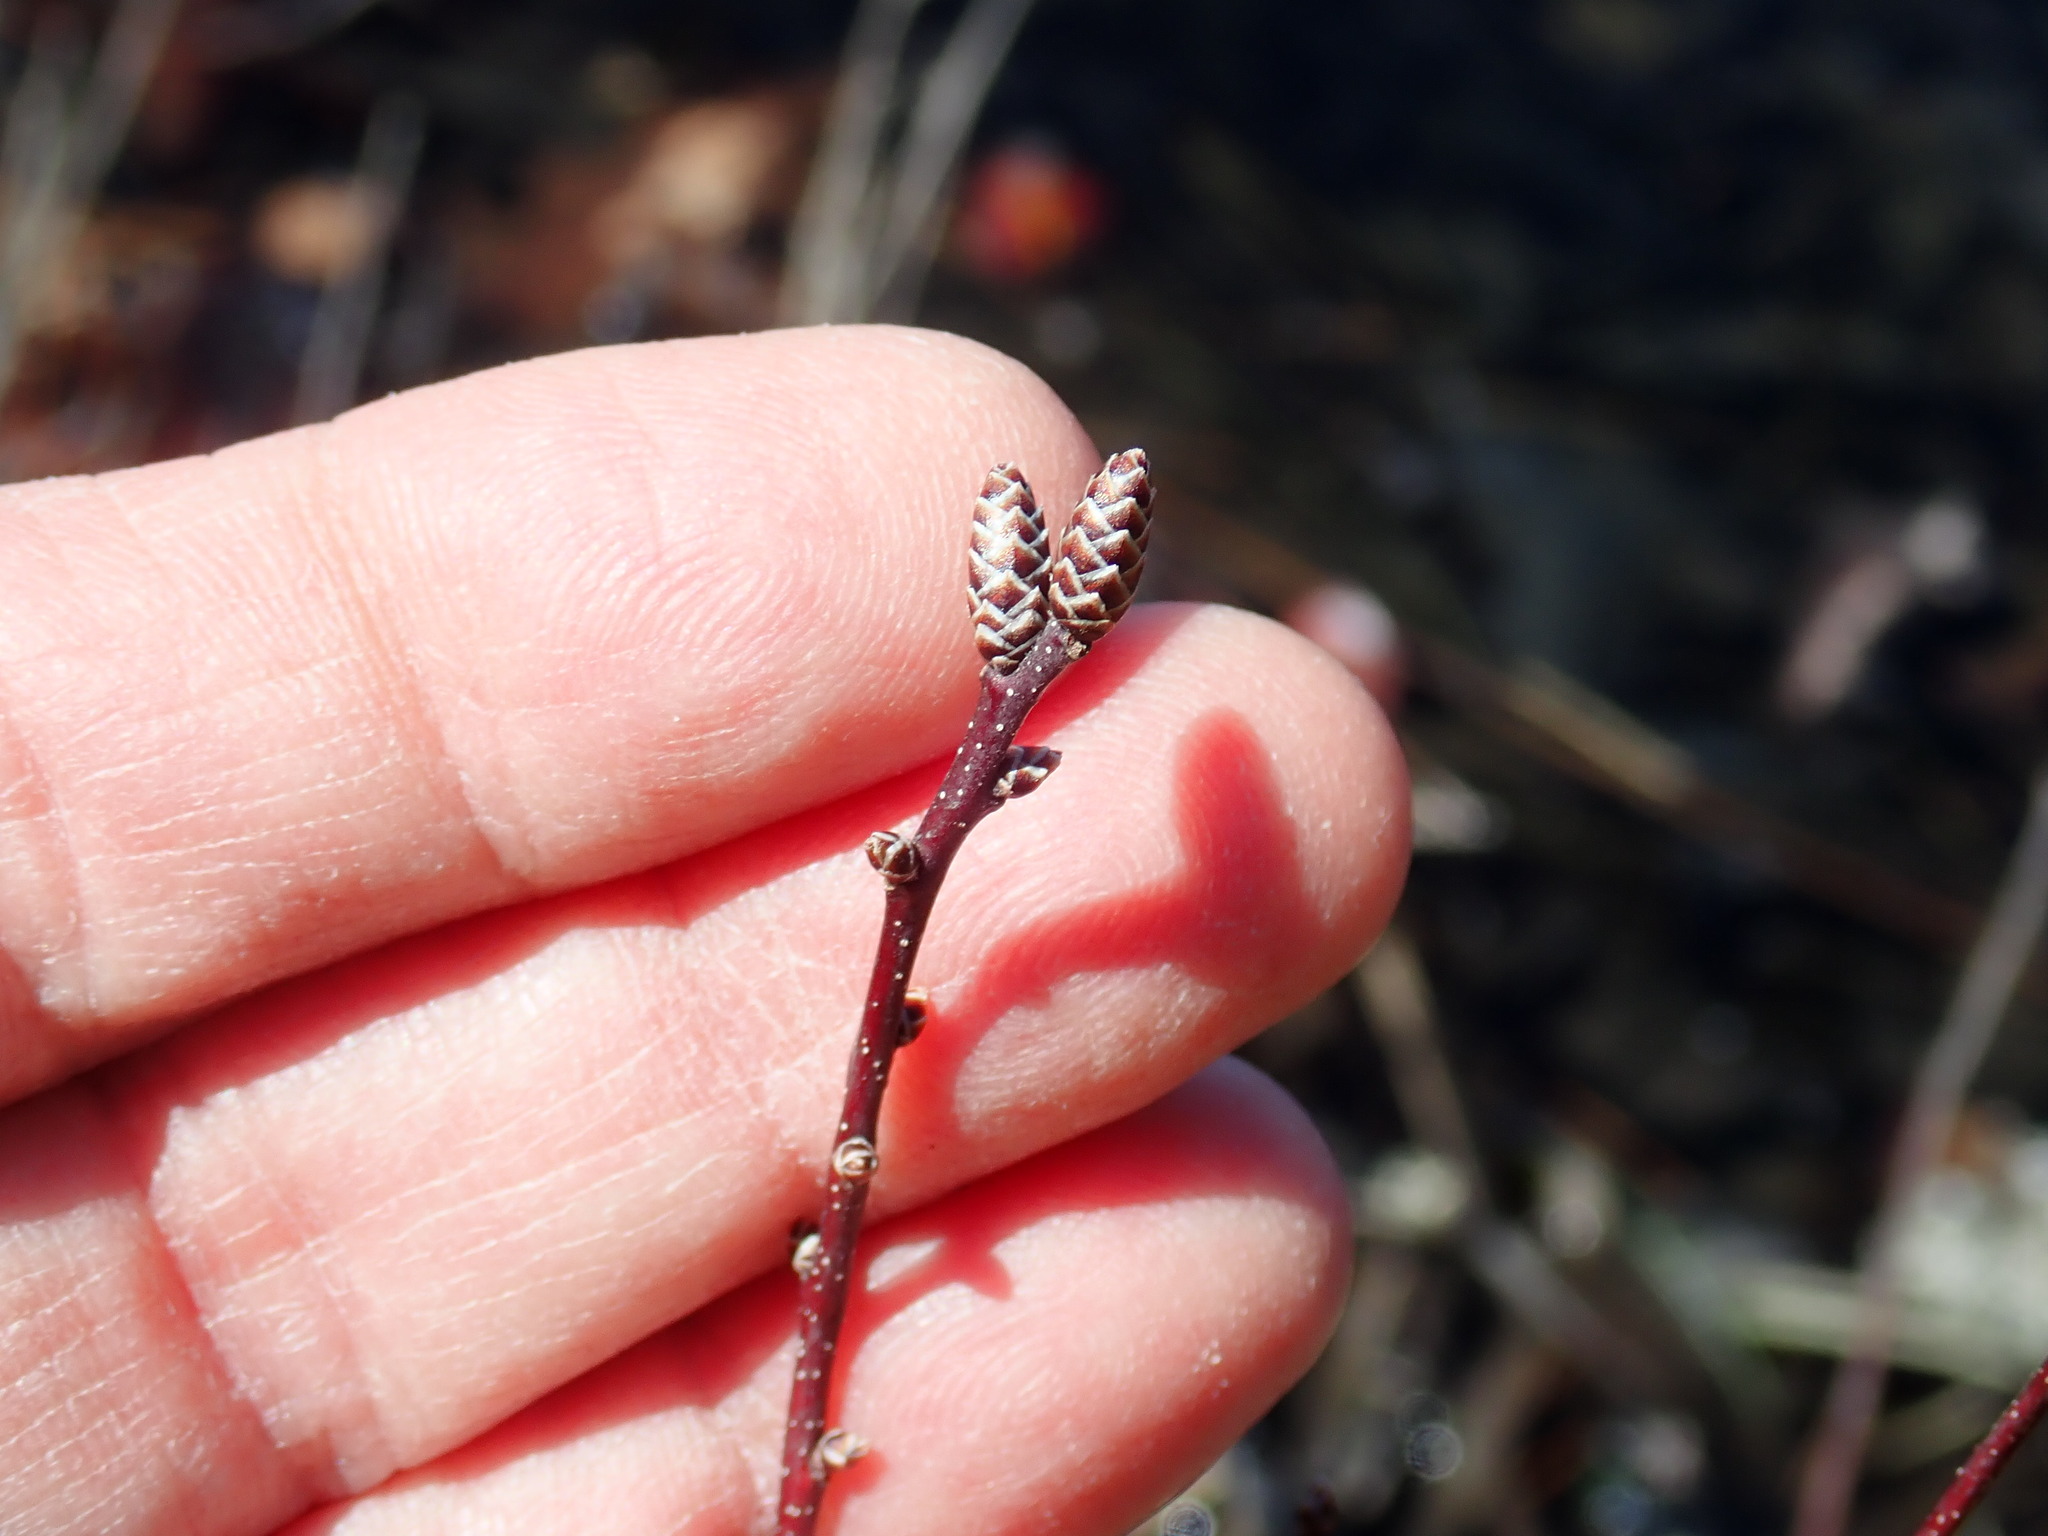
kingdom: Plantae
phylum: Tracheophyta
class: Magnoliopsida
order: Fagales
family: Myricaceae
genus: Myrica
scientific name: Myrica gale
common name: Sweet gale
